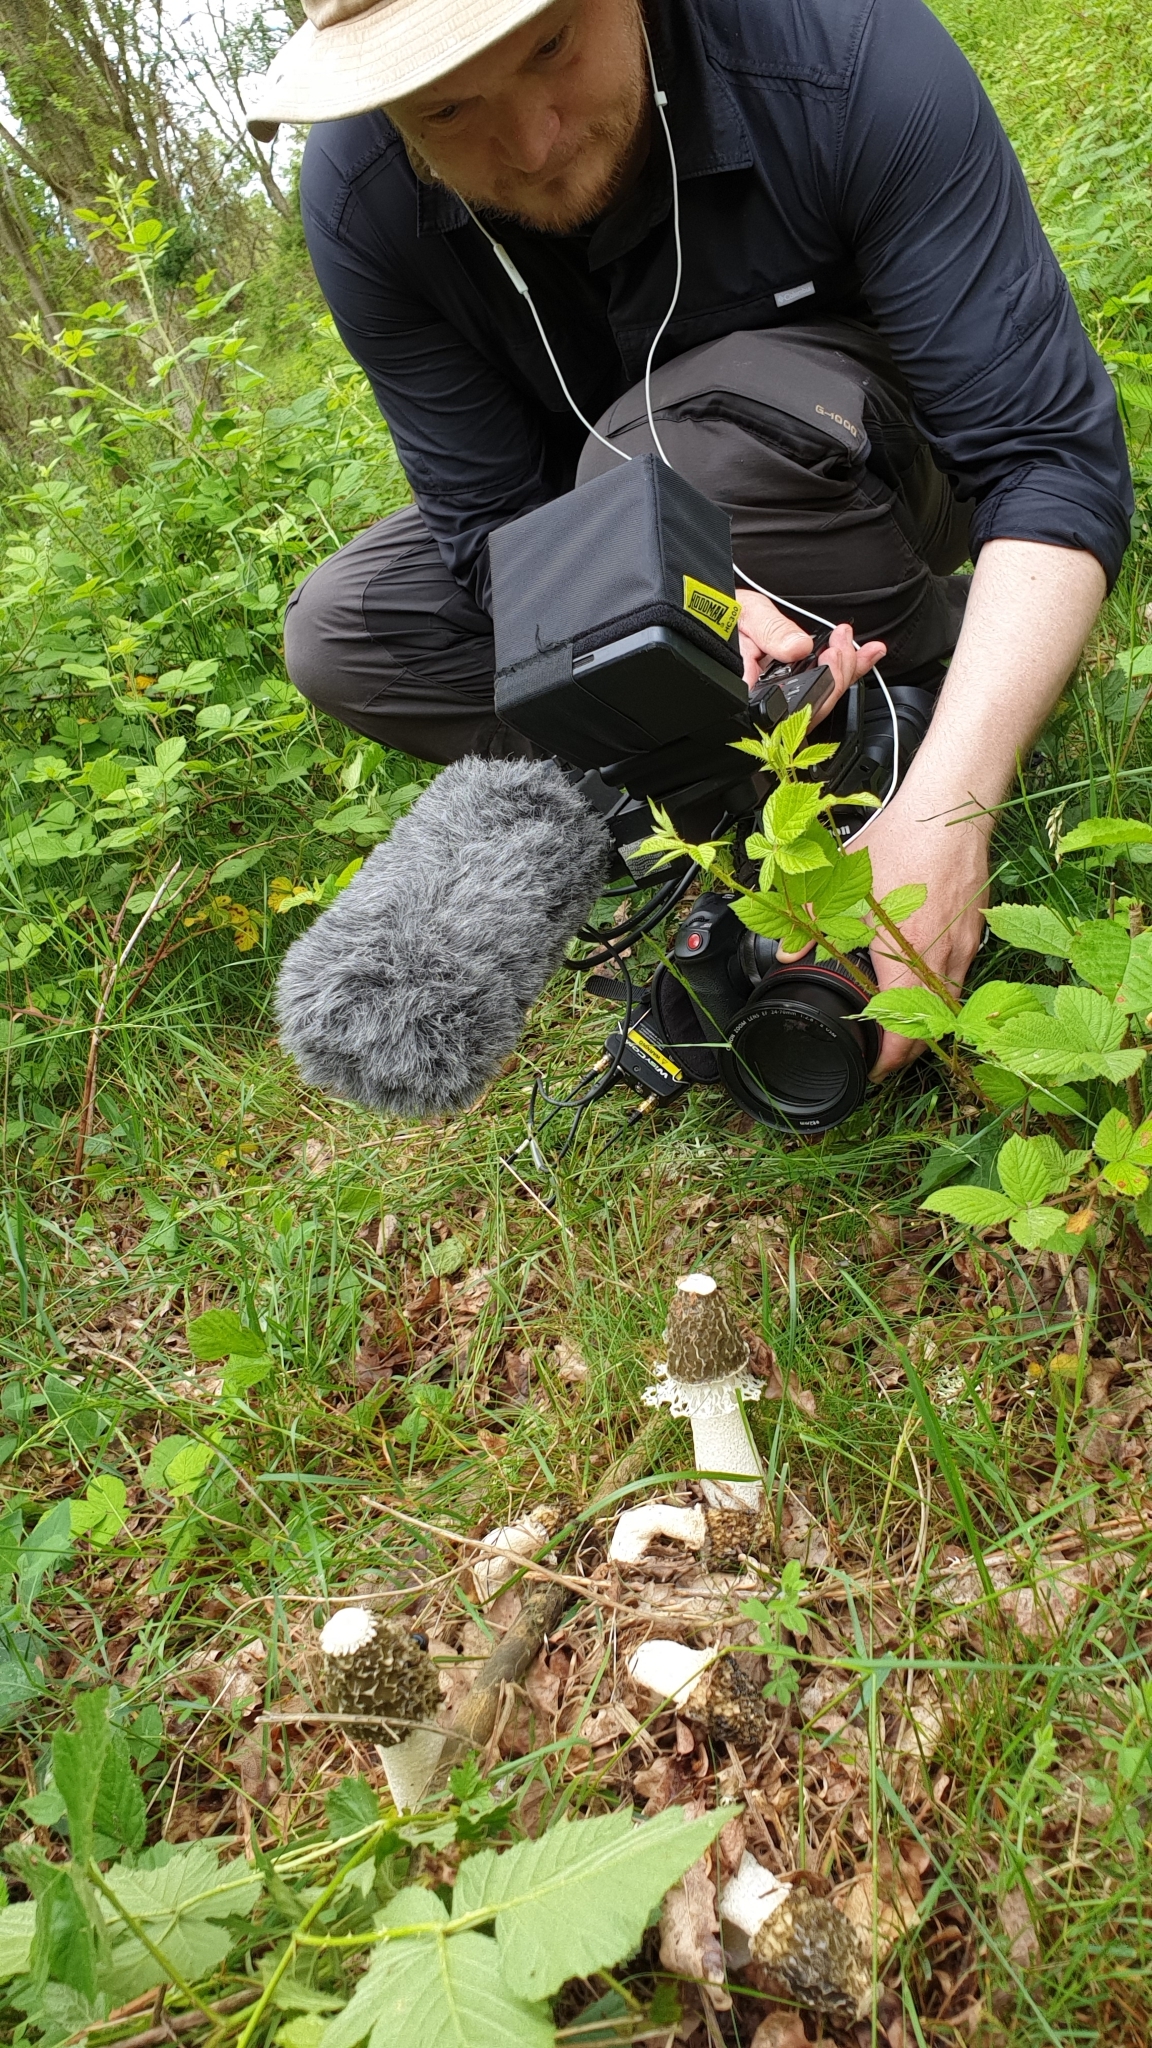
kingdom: Fungi
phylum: Basidiomycota
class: Agaricomycetes
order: Phallales
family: Phallaceae
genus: Phallus
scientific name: Phallus impudicus
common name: Common stinkhorn
